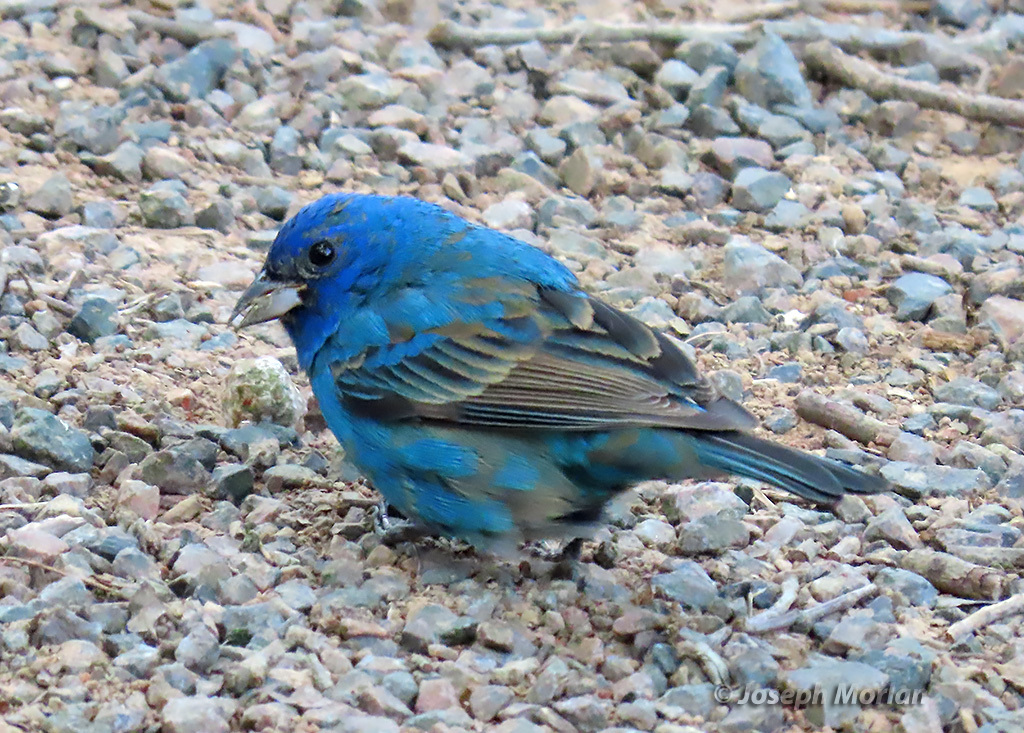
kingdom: Animalia
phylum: Chordata
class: Aves
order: Passeriformes
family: Cardinalidae
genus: Passerina
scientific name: Passerina cyanea
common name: Indigo bunting
